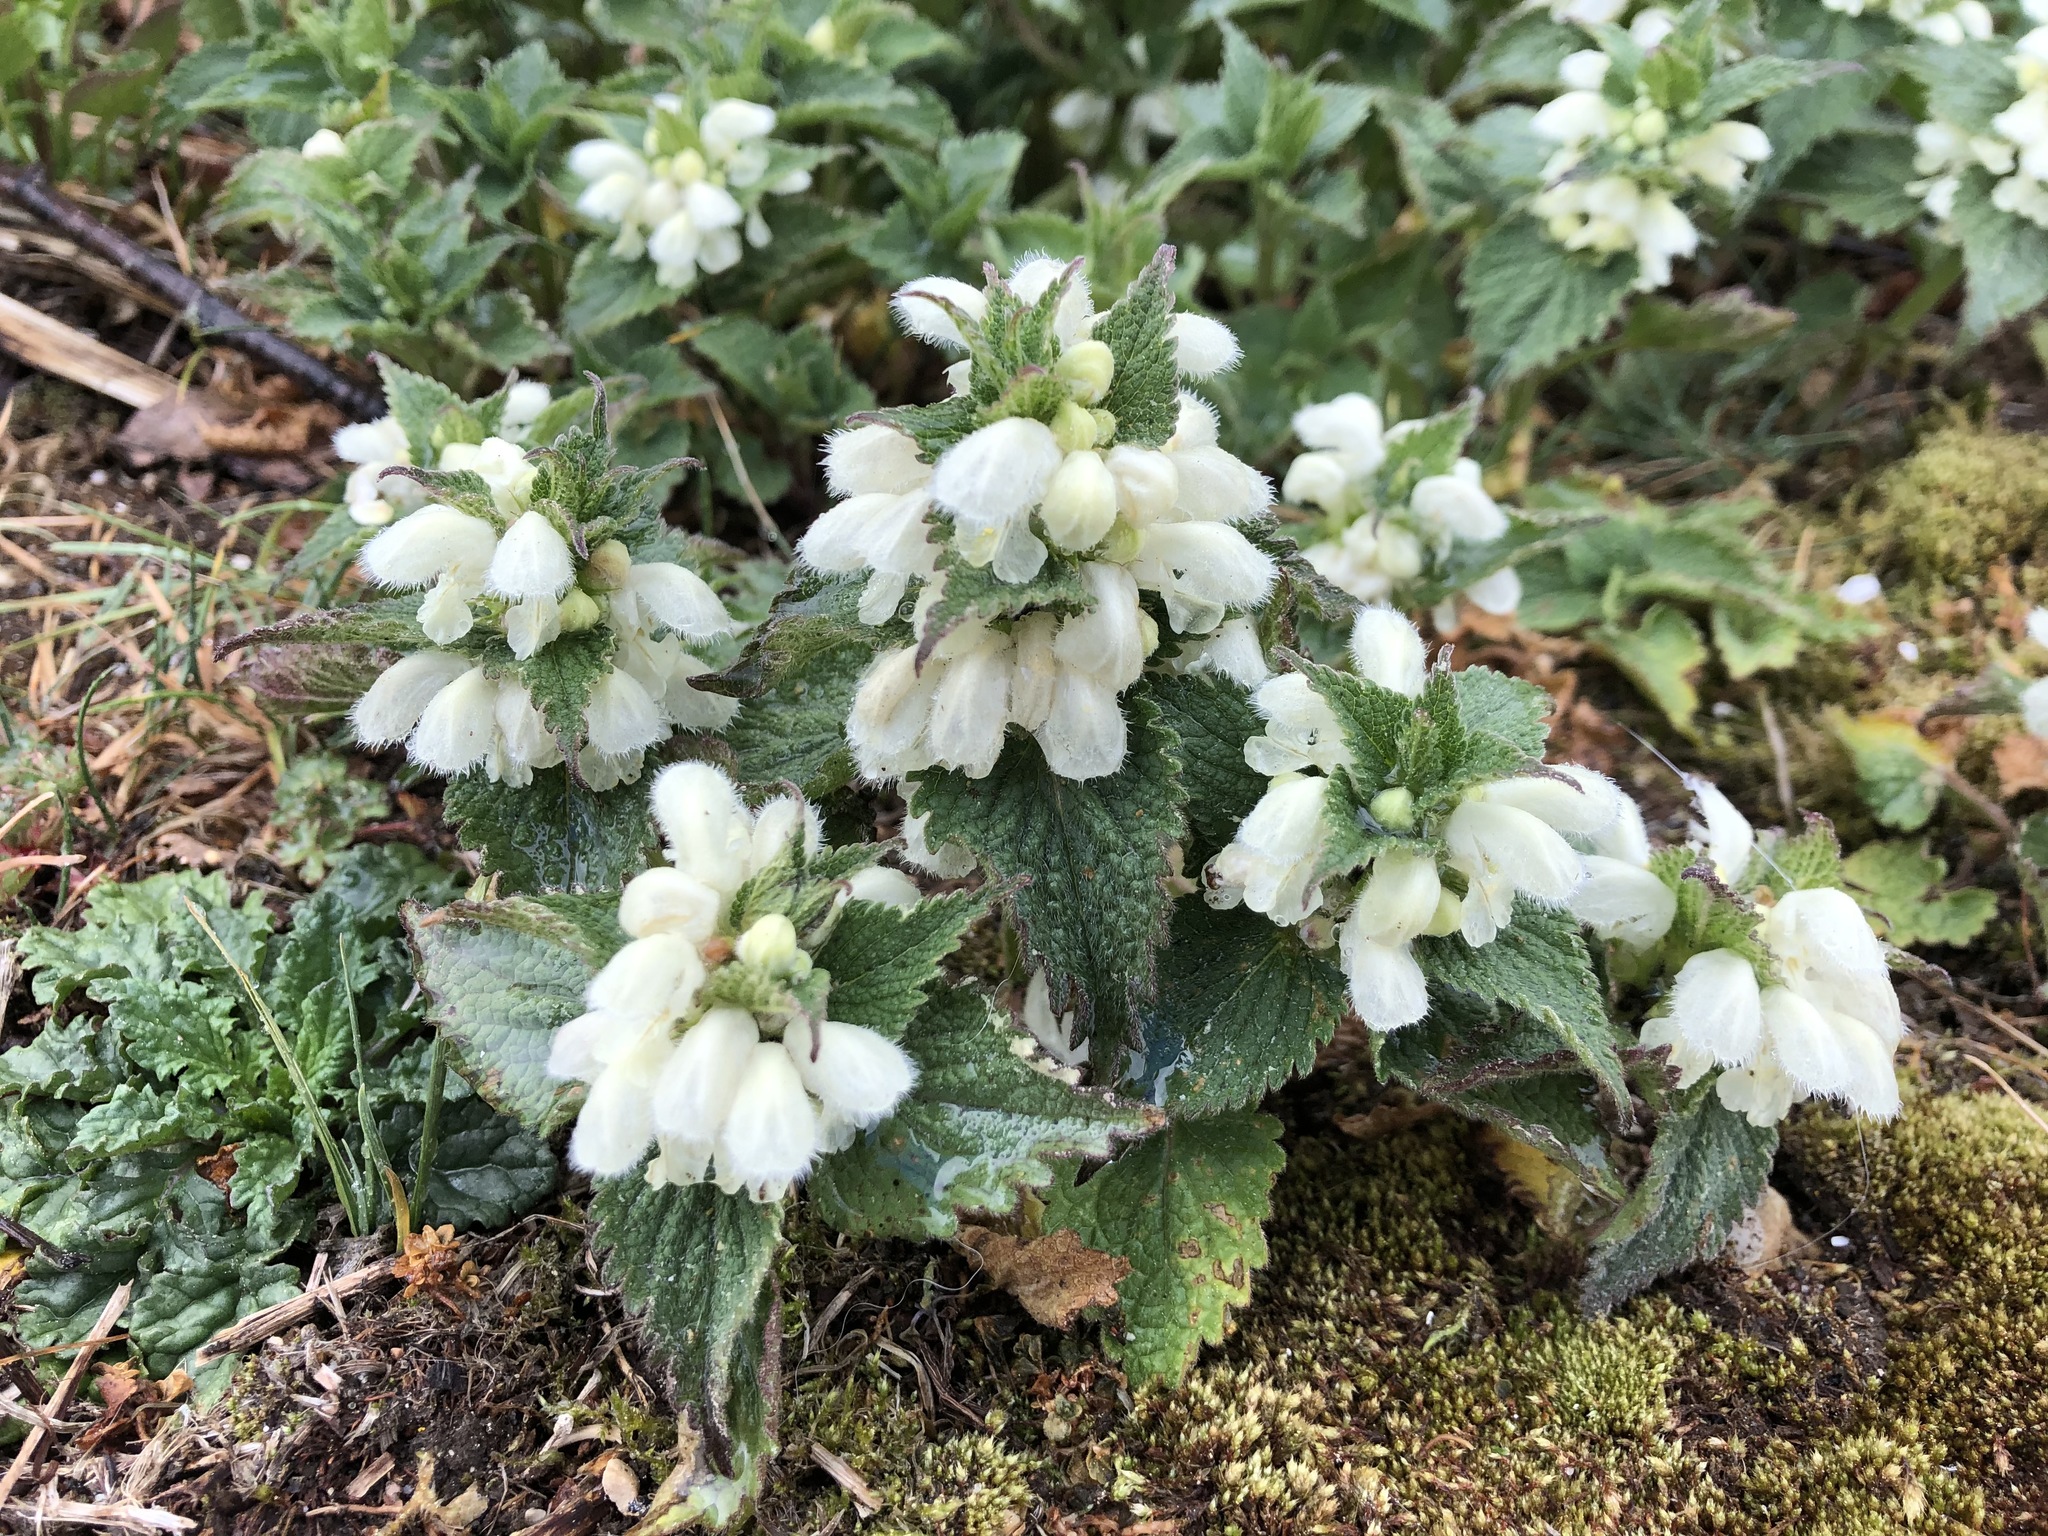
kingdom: Plantae
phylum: Tracheophyta
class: Magnoliopsida
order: Lamiales
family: Lamiaceae
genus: Lamium
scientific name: Lamium album
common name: White dead-nettle
